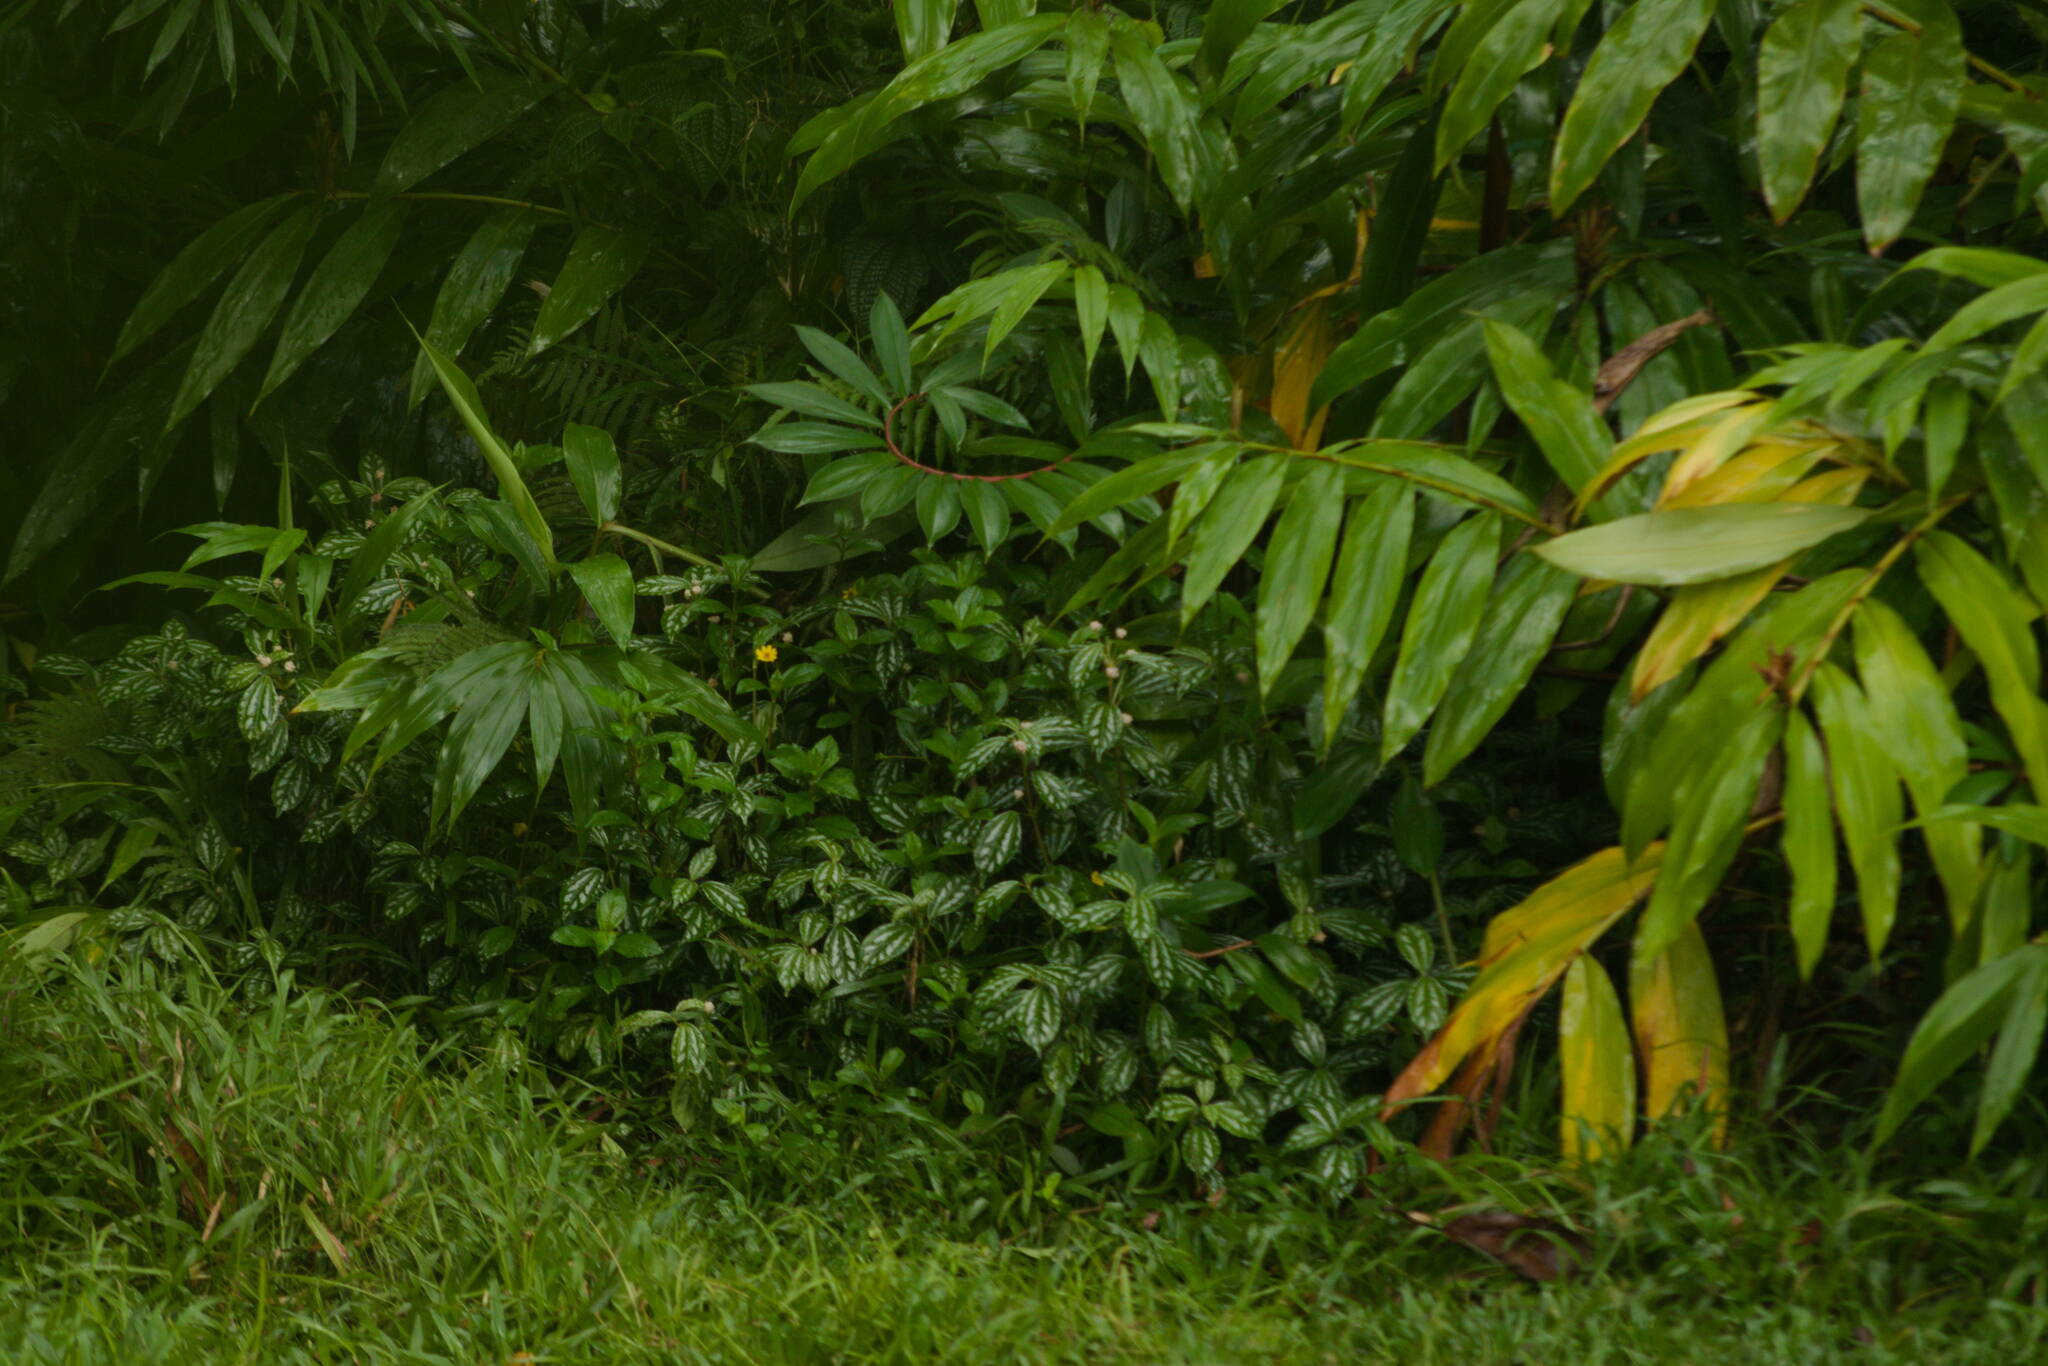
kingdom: Plantae
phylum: Tracheophyta
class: Magnoliopsida
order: Rosales
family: Urticaceae
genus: Pilea
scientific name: Pilea cadierei
